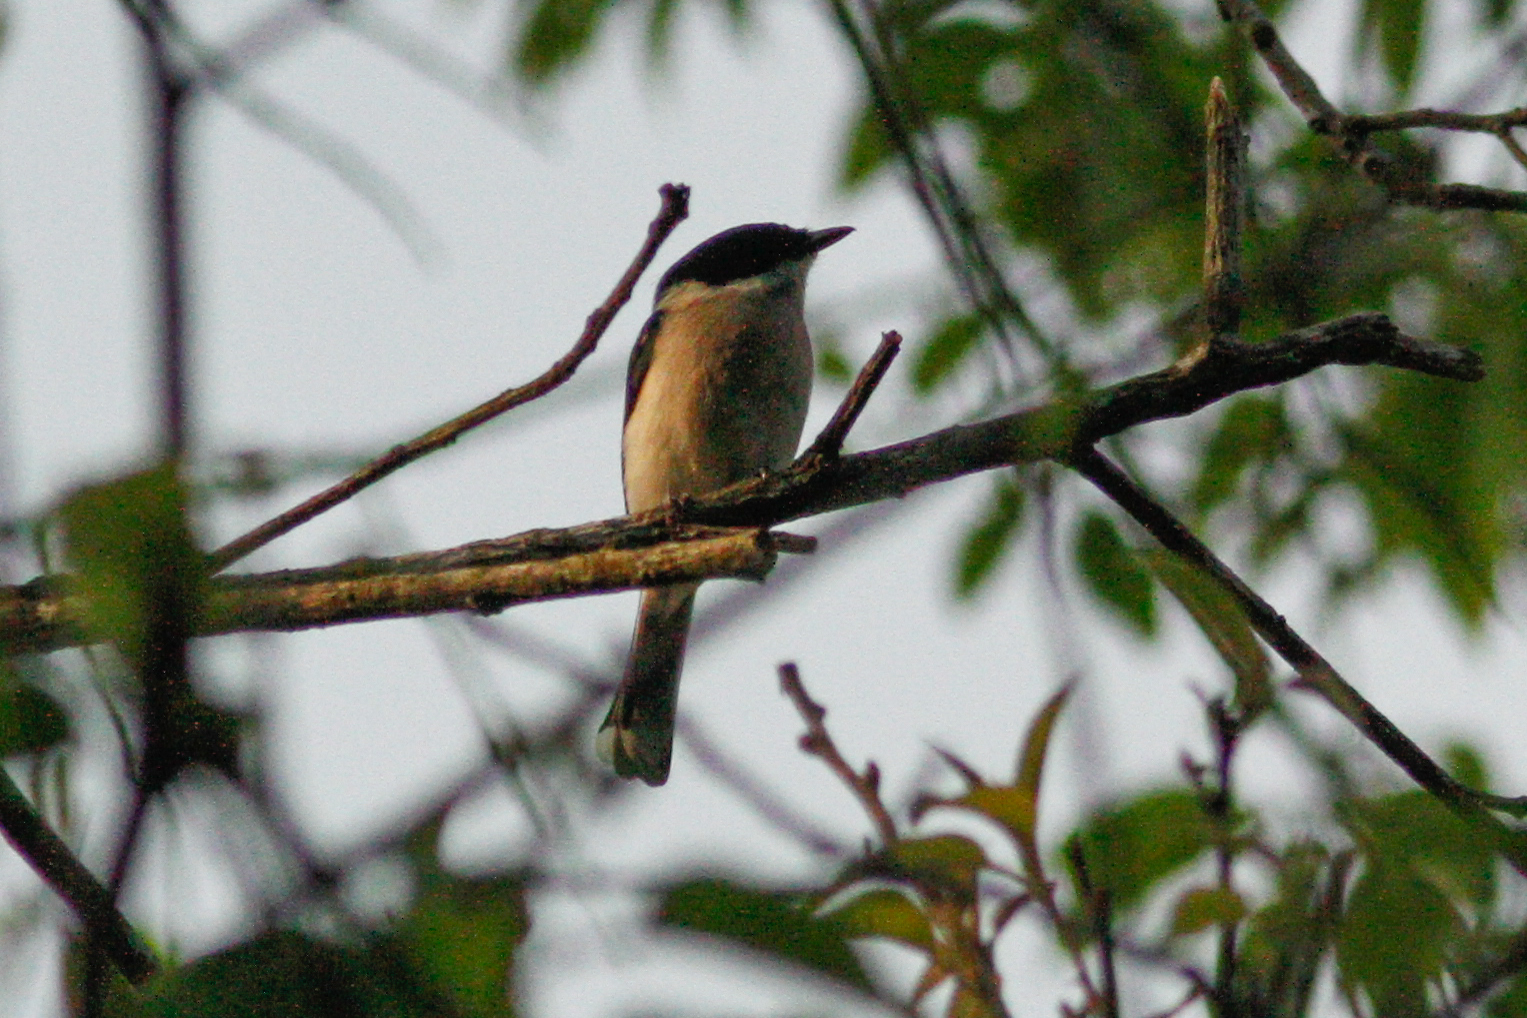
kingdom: Animalia
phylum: Chordata
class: Aves
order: Passeriformes
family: Tephrodornithidae
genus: Hemipus
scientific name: Hemipus picatus
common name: Bar-winged flycatcher-shrike
